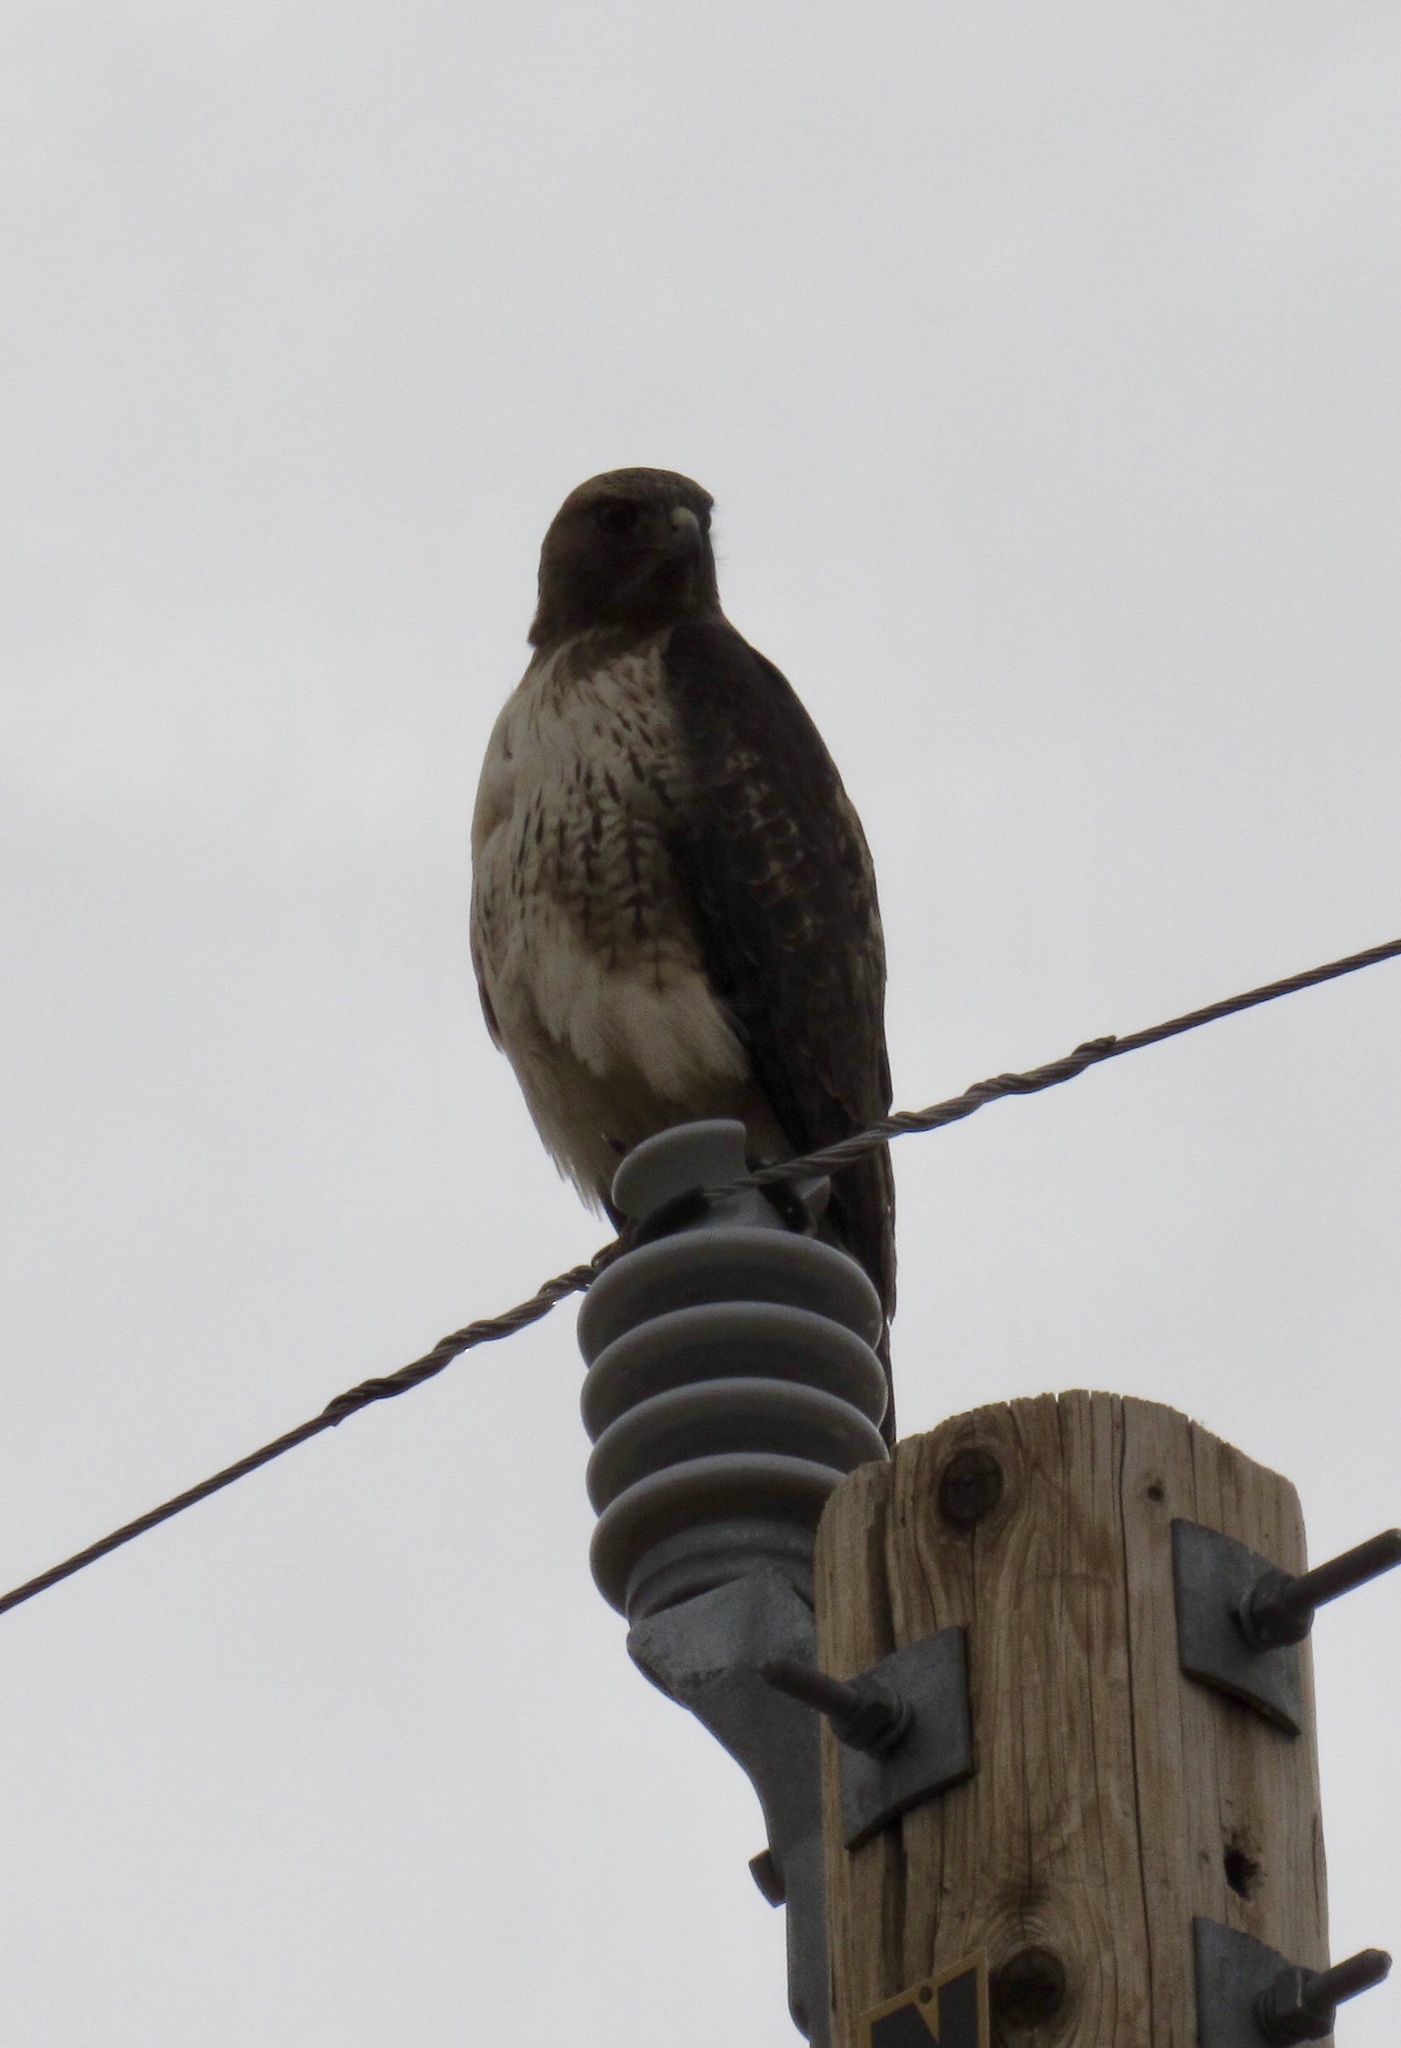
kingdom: Animalia
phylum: Chordata
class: Aves
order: Accipitriformes
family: Accipitridae
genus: Buteo
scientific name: Buteo jamaicensis
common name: Red-tailed hawk
